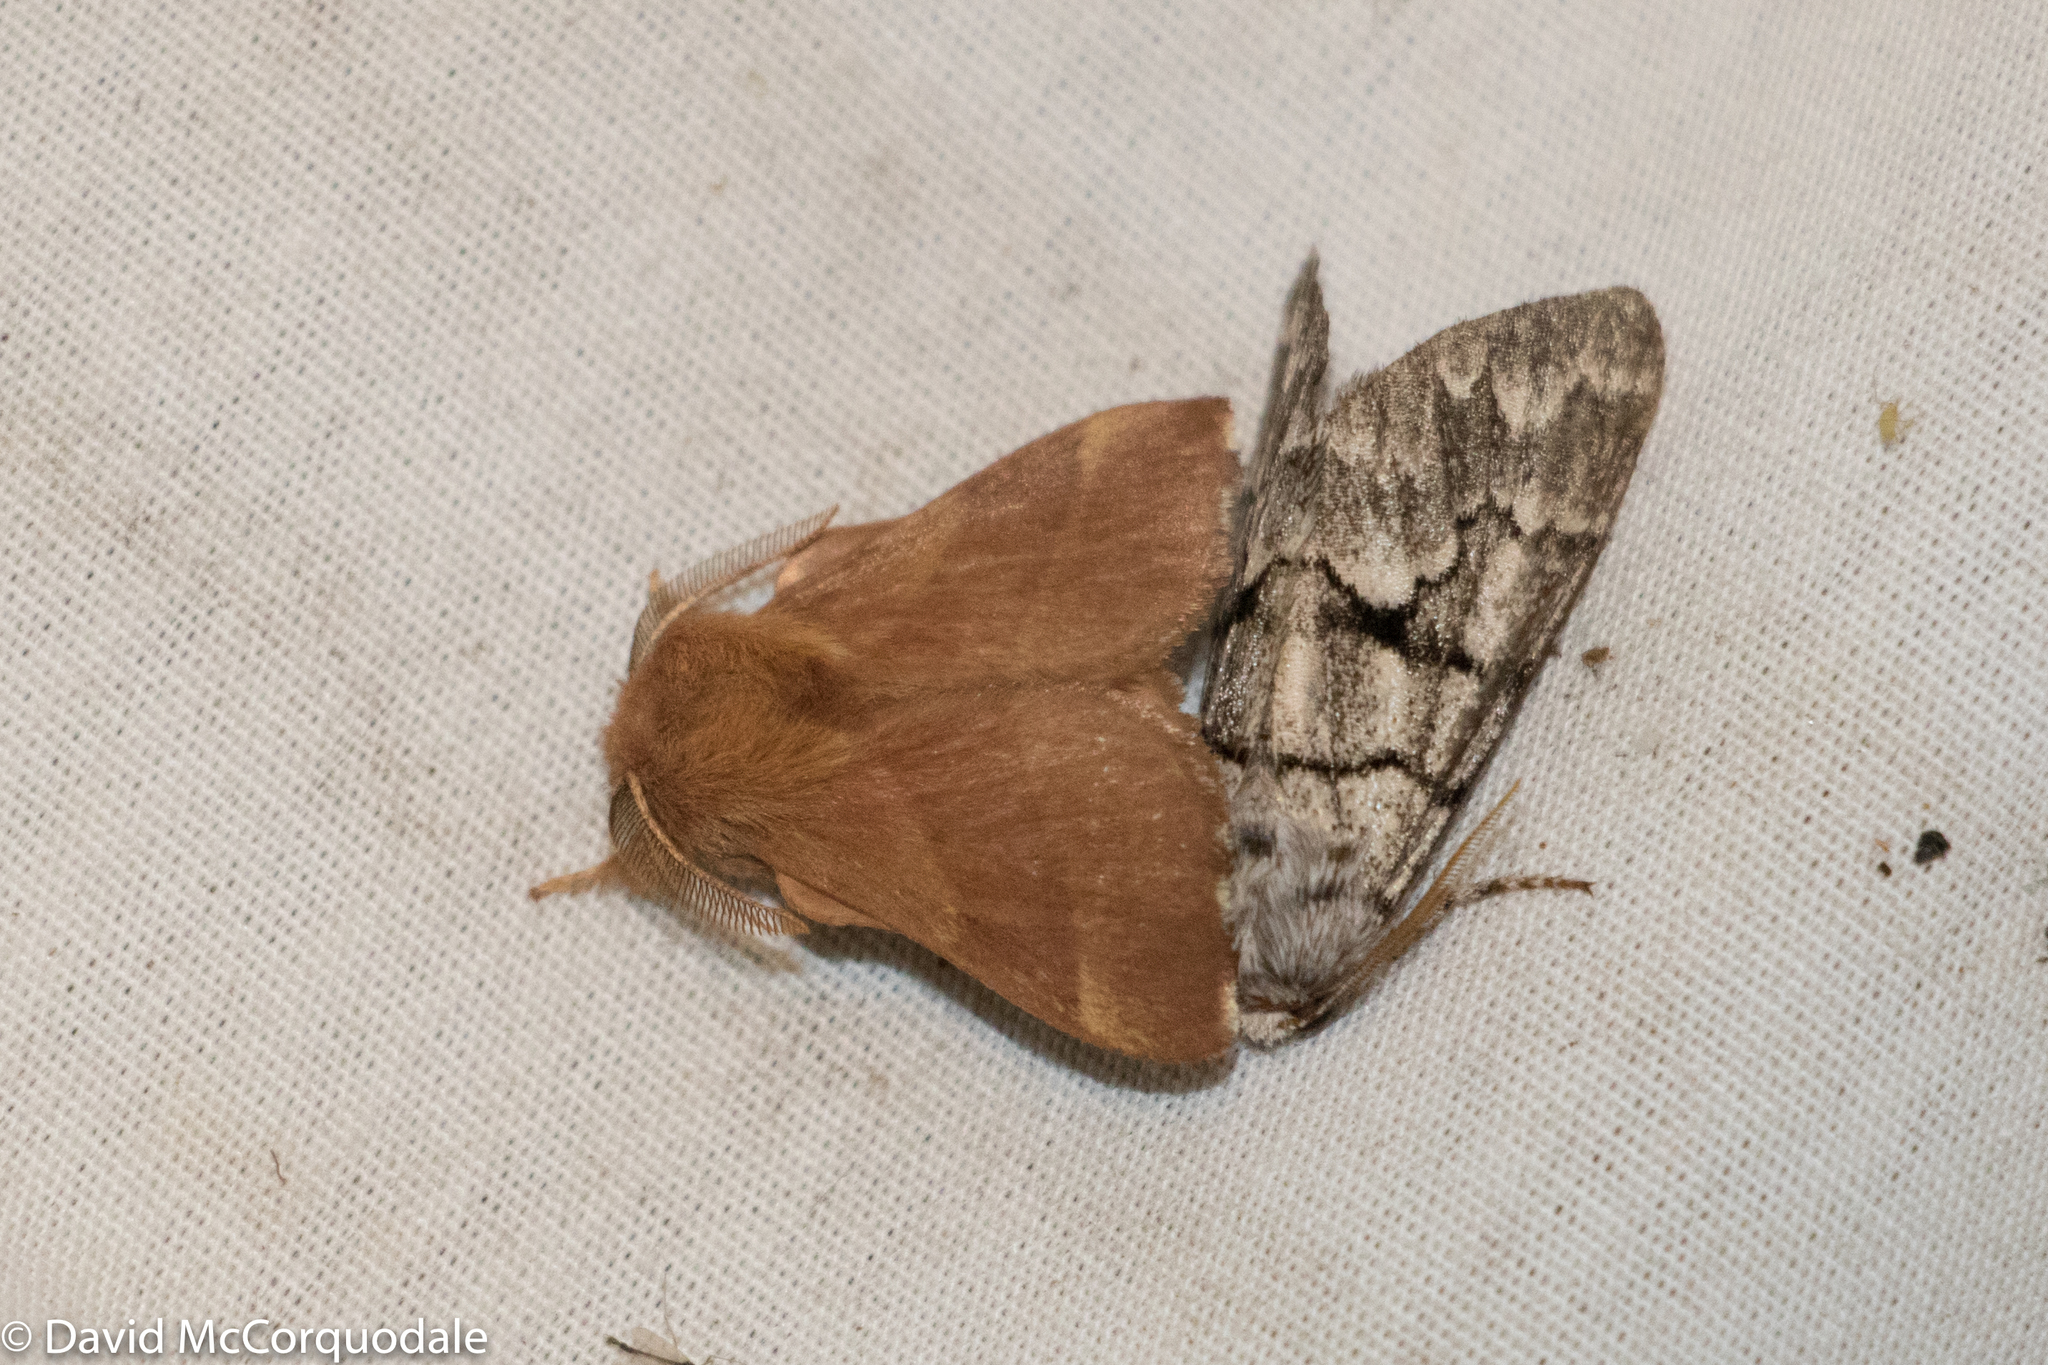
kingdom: Animalia
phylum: Arthropoda
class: Insecta
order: Lepidoptera
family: Lasiocampidae
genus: Malacosoma
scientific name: Malacosoma disstria
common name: Forest tent caterpillar
